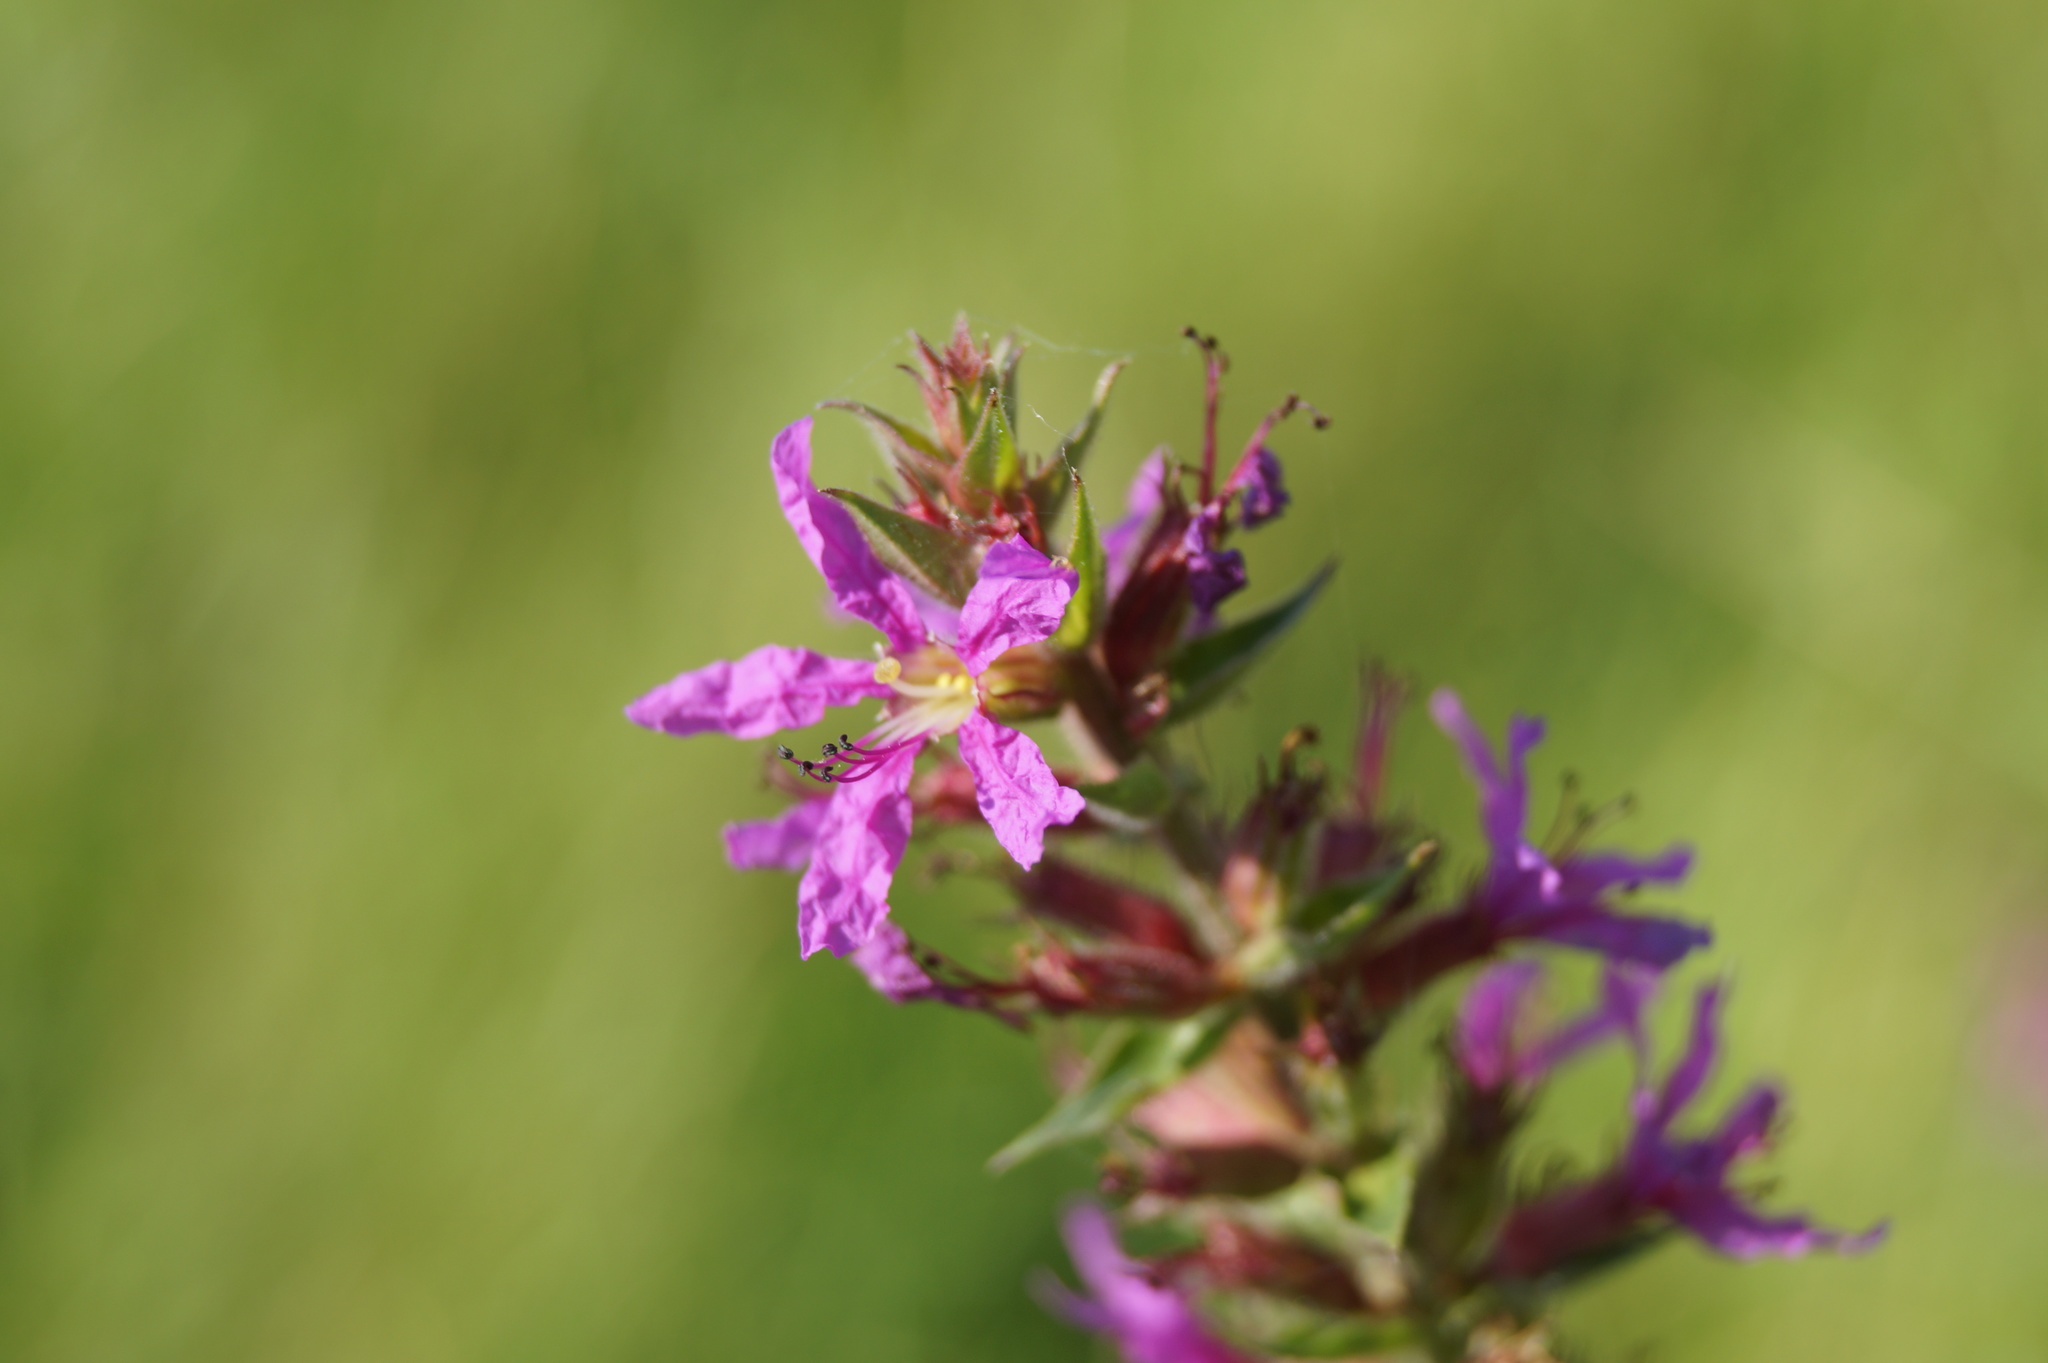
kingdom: Plantae
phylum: Tracheophyta
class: Magnoliopsida
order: Myrtales
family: Lythraceae
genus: Lythrum
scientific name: Lythrum salicaria
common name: Purple loosestrife
